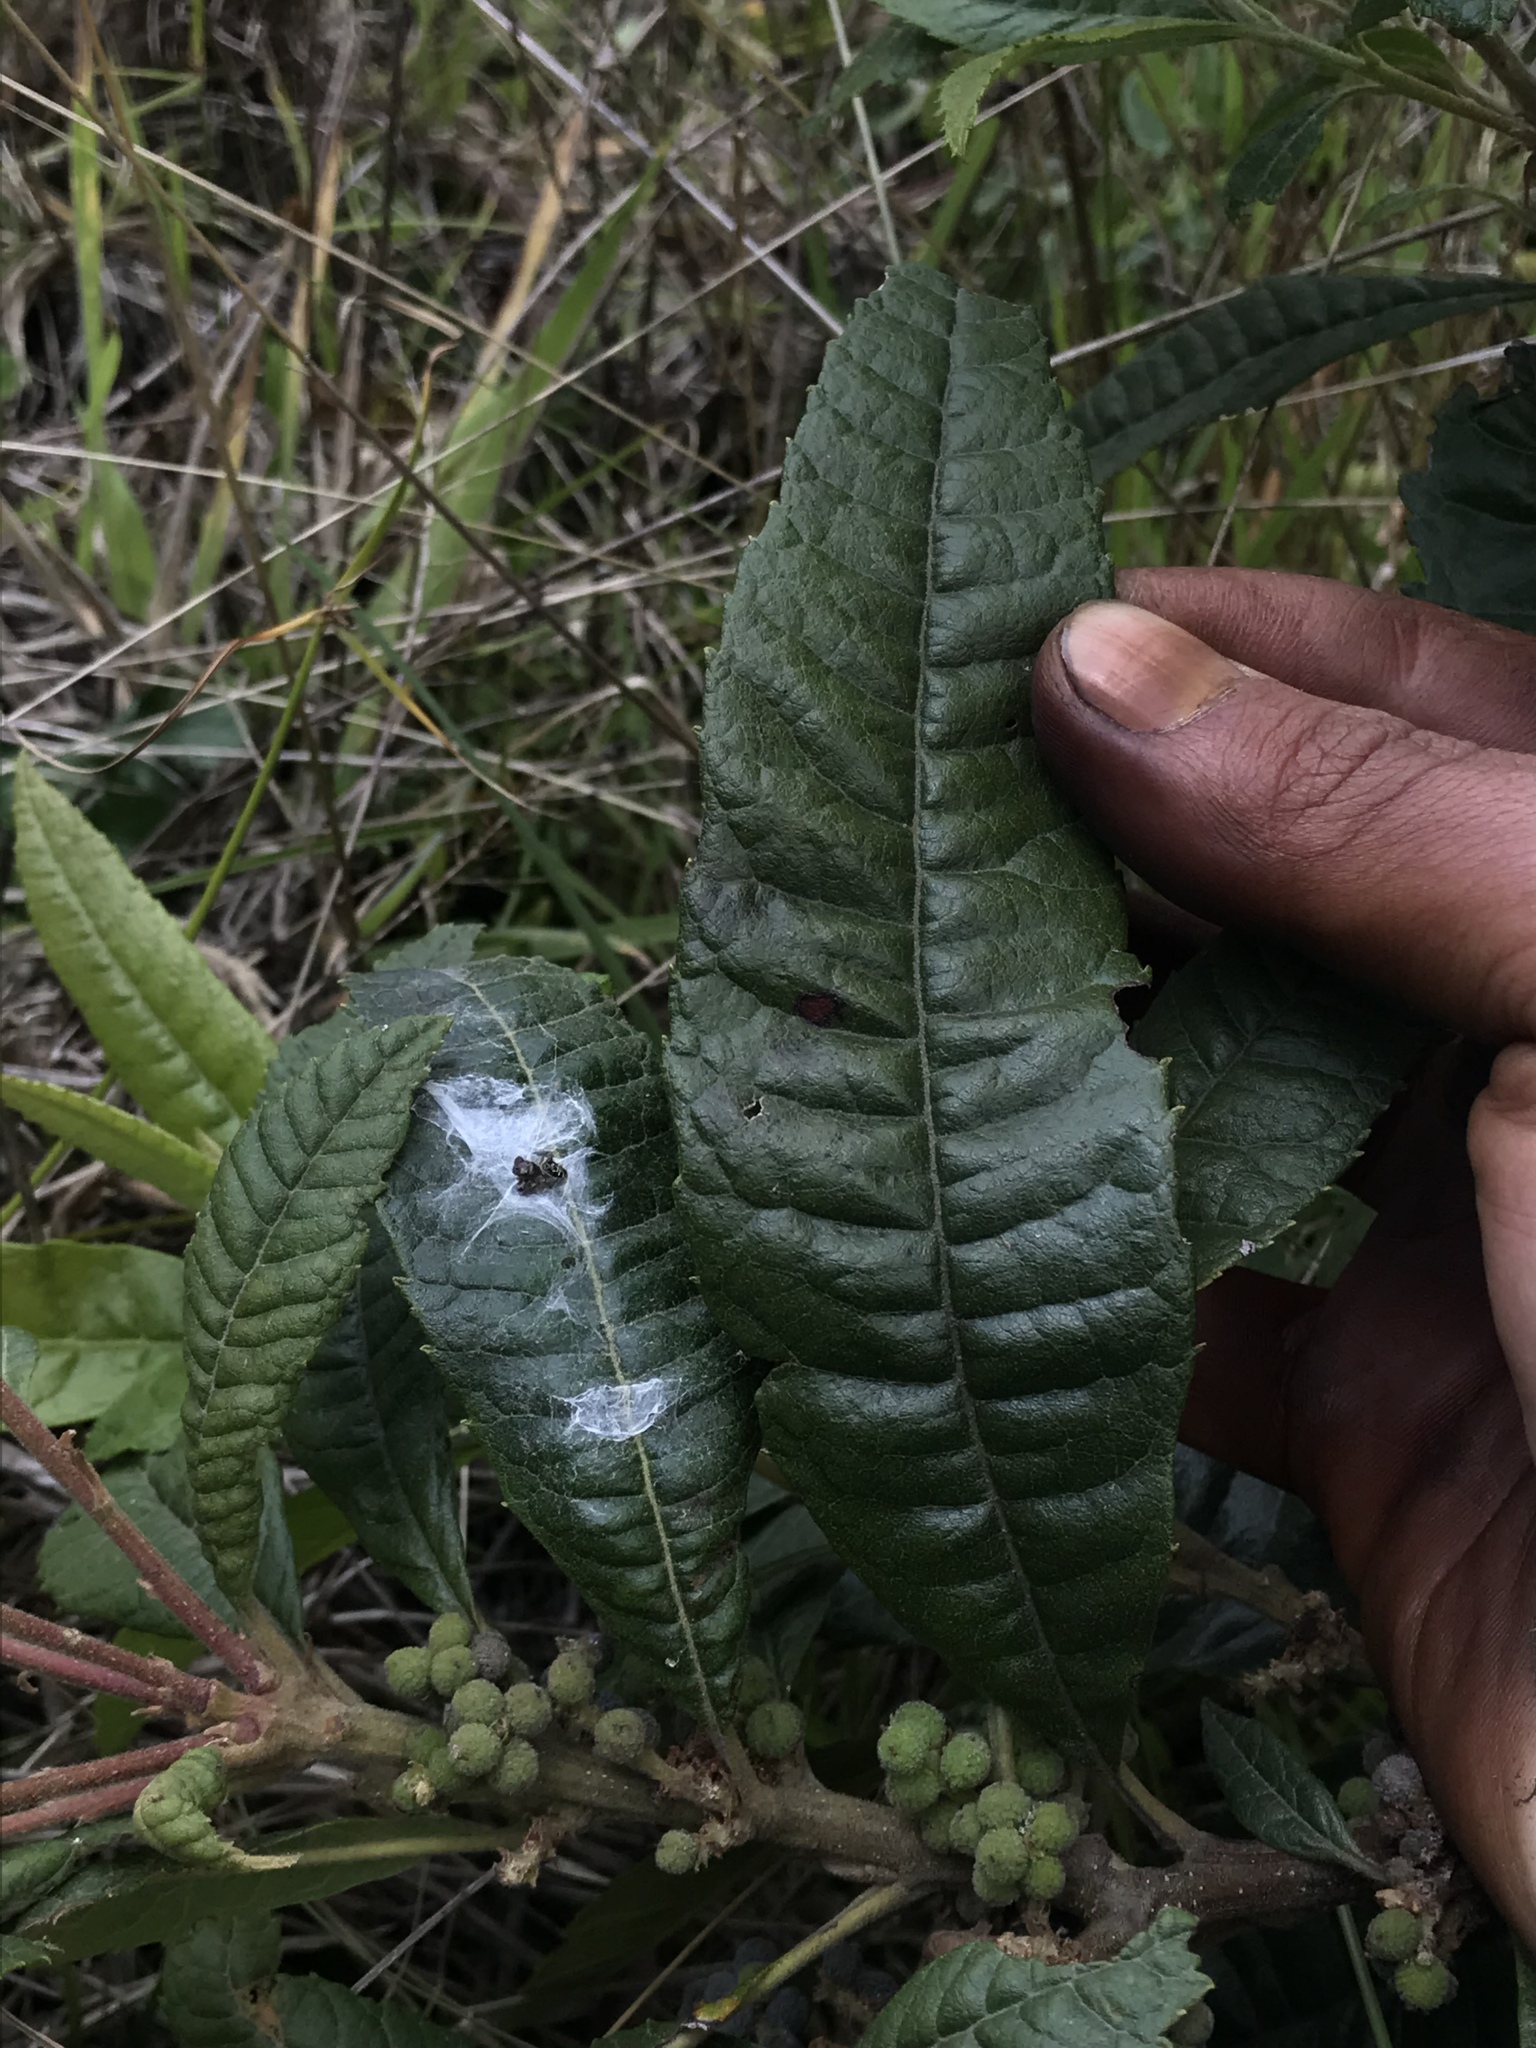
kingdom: Plantae
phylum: Tracheophyta
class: Magnoliopsida
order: Fagales
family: Myricaceae
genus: Morella
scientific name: Morella pubescens
